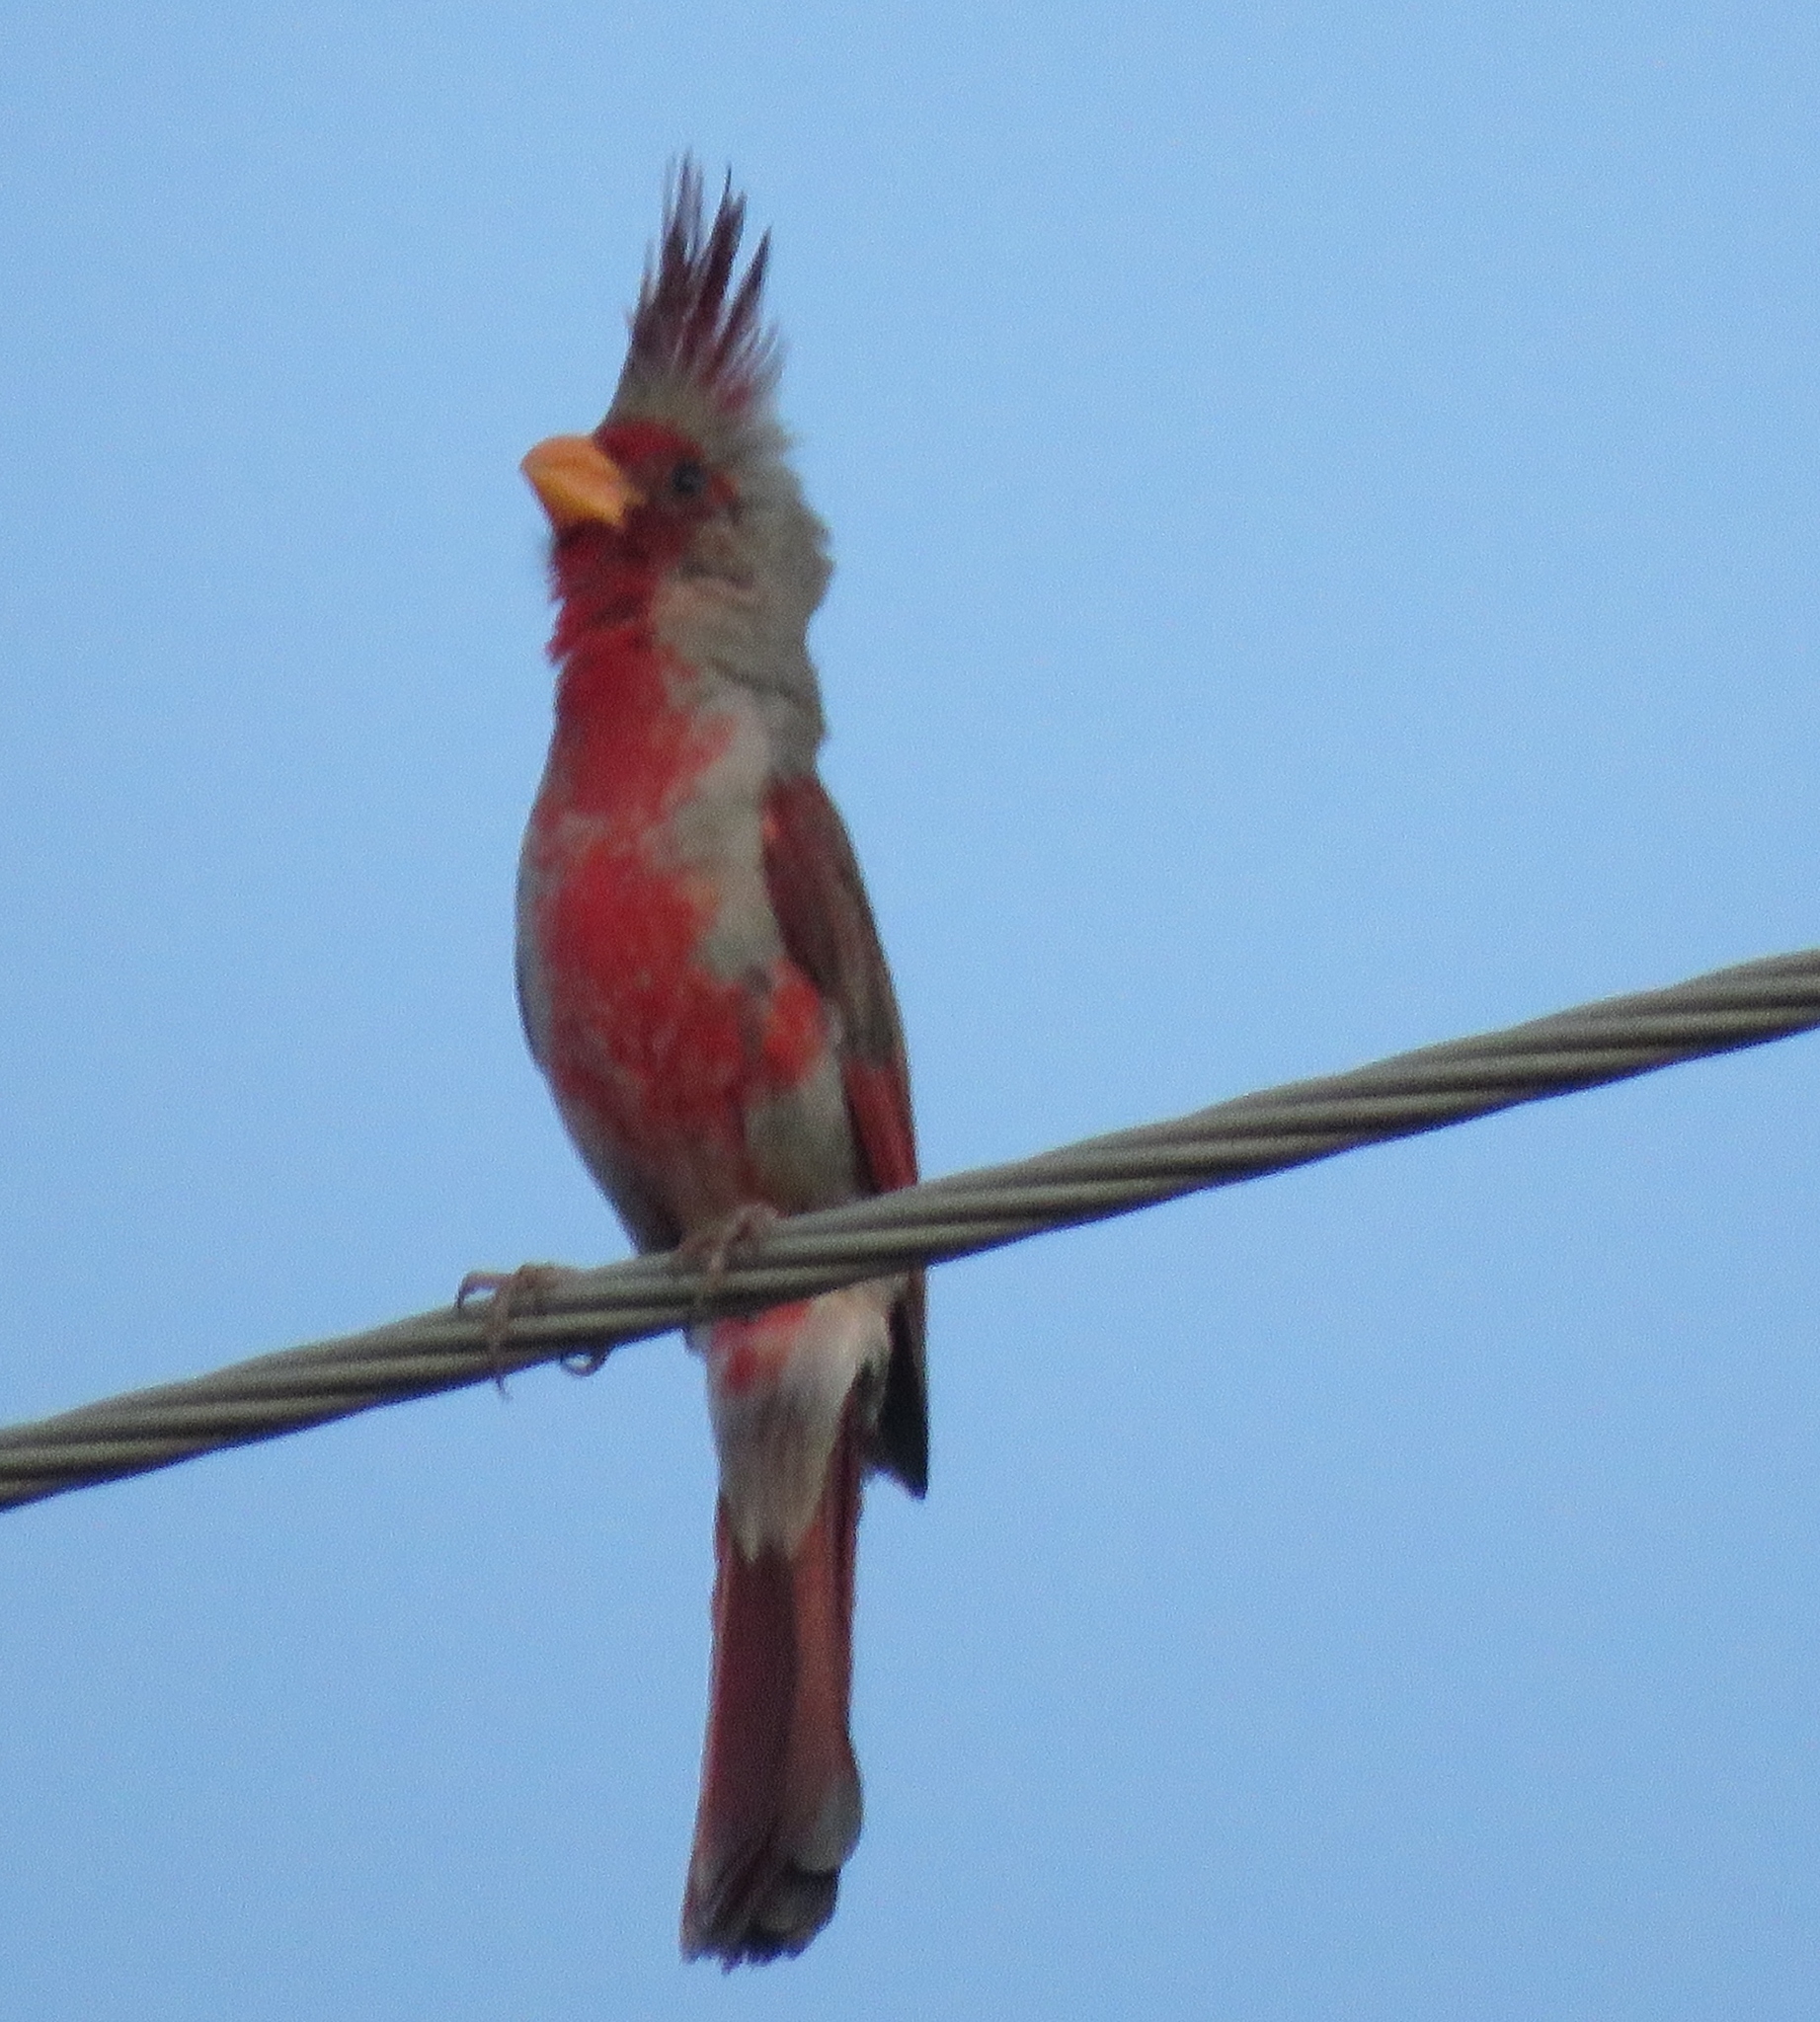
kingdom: Animalia
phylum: Chordata
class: Aves
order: Passeriformes
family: Cardinalidae
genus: Cardinalis
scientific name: Cardinalis sinuatus
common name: Pyrrhuloxia
